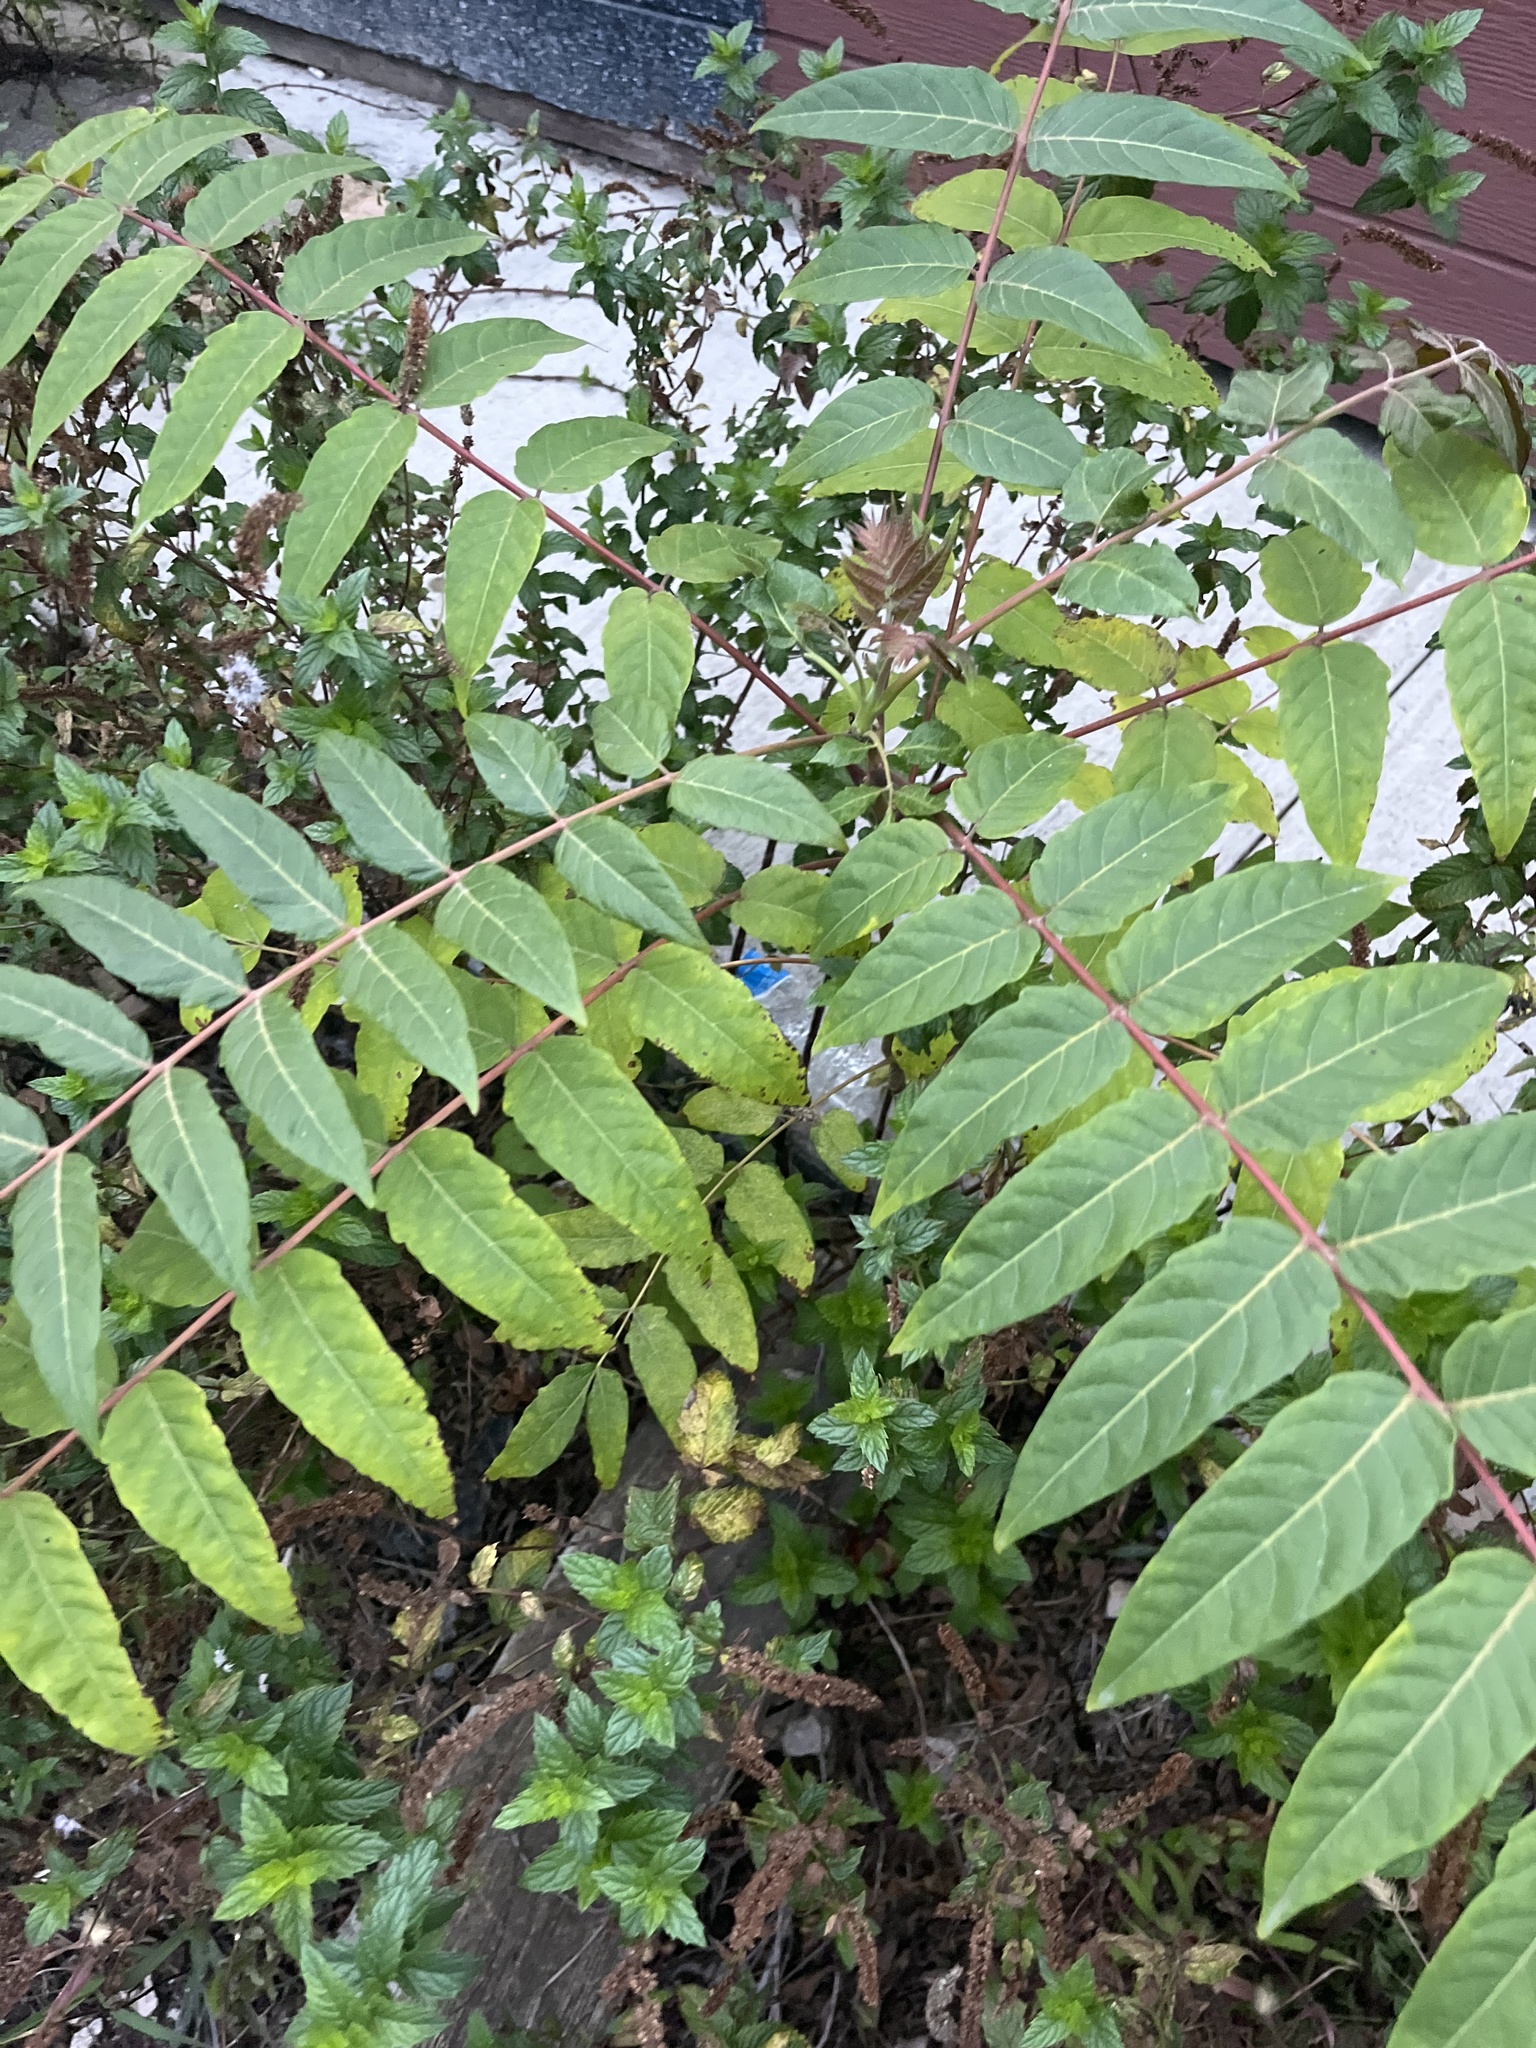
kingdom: Plantae
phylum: Tracheophyta
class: Magnoliopsida
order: Sapindales
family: Simaroubaceae
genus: Ailanthus
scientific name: Ailanthus altissima
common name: Tree-of-heaven
